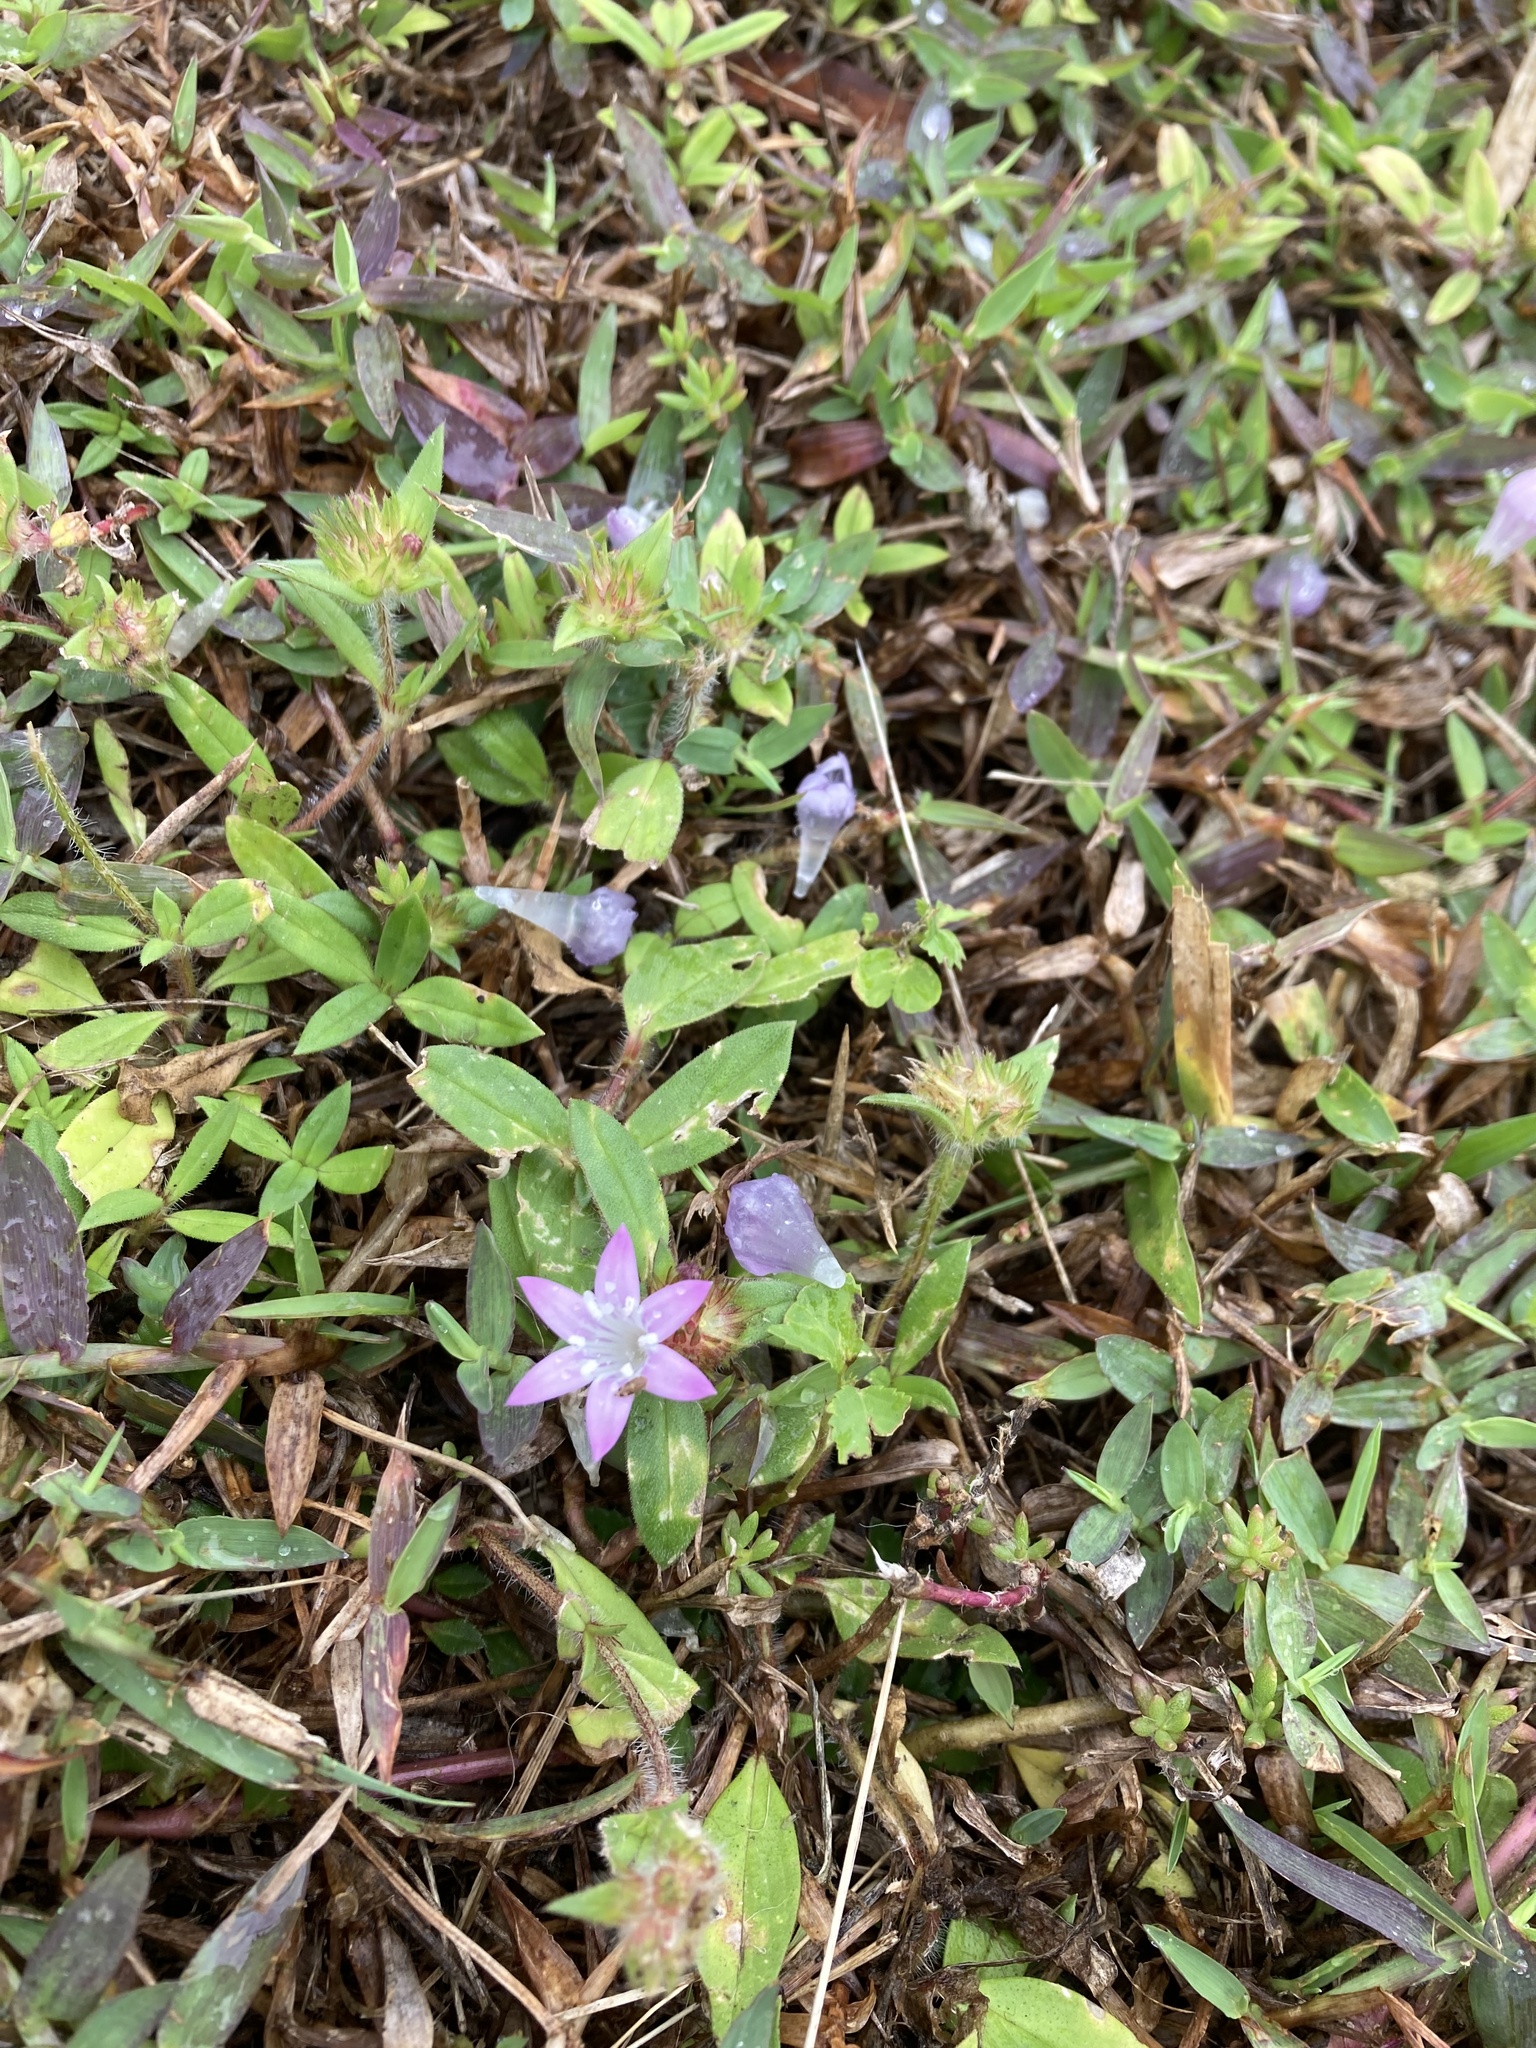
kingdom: Plantae
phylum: Tracheophyta
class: Magnoliopsida
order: Gentianales
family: Rubiaceae
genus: Richardia
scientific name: Richardia grandiflora
